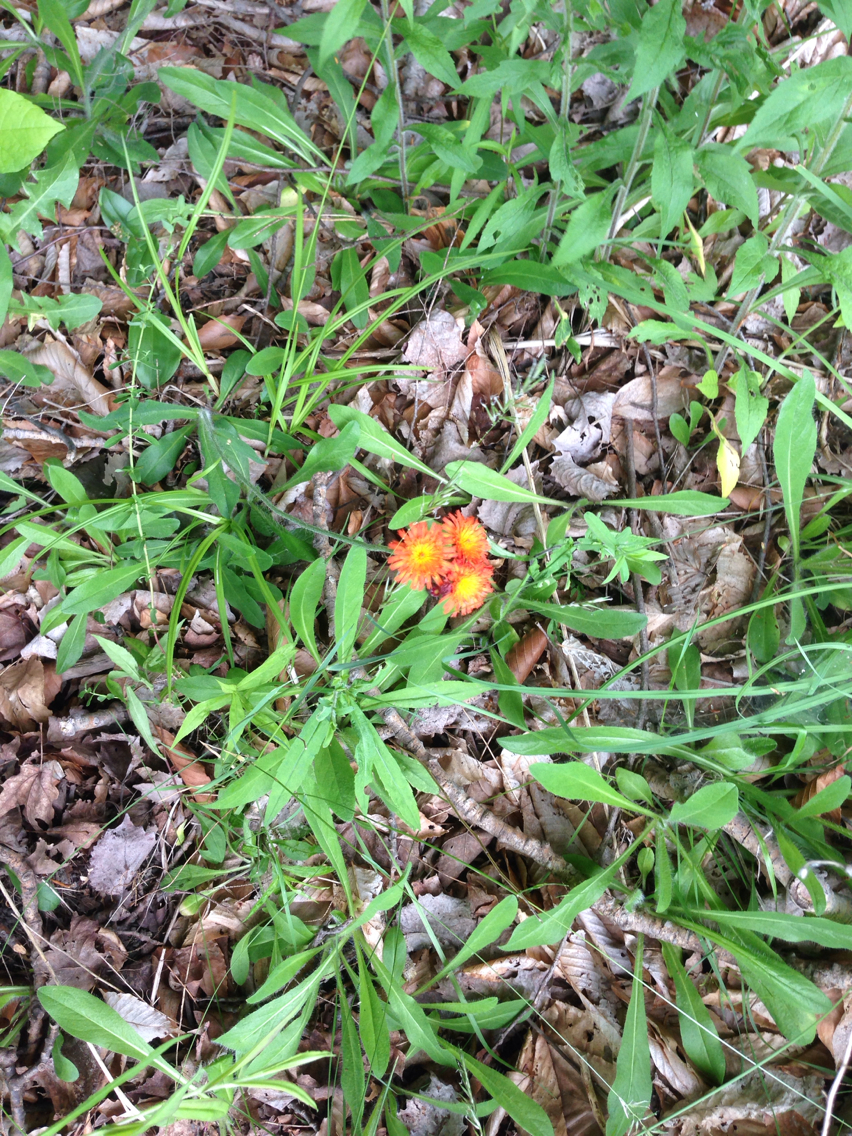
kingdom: Plantae
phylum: Tracheophyta
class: Magnoliopsida
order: Asterales
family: Asteraceae
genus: Pilosella
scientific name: Pilosella aurantiaca
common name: Fox-and-cubs
